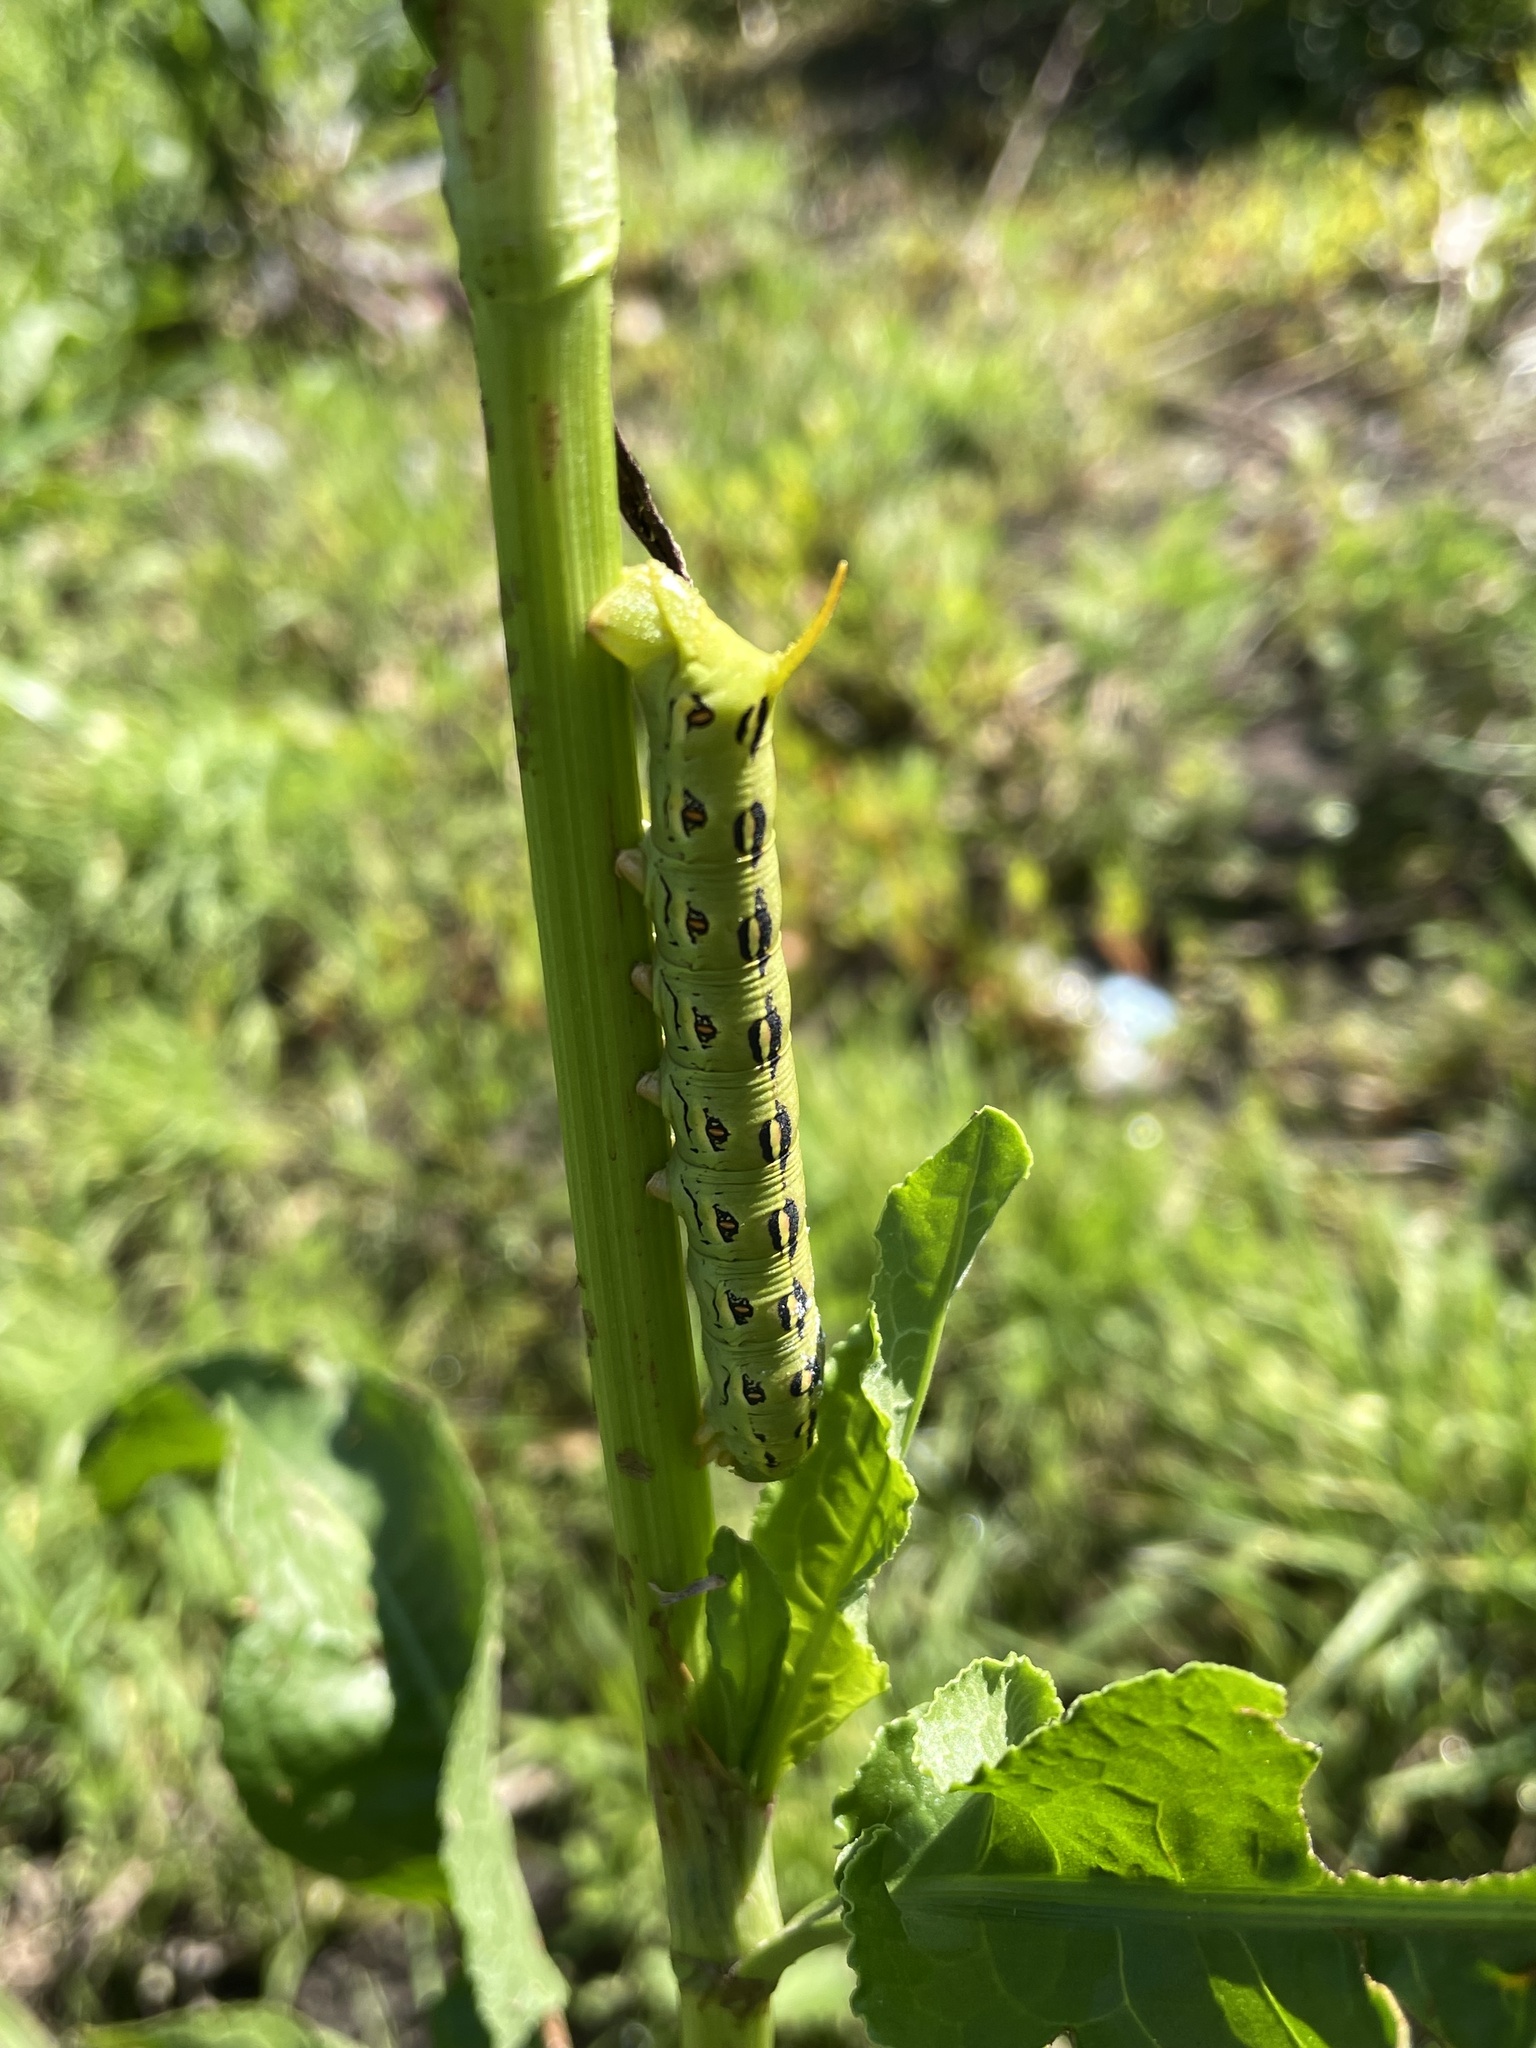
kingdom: Animalia
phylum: Arthropoda
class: Insecta
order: Lepidoptera
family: Sphingidae
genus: Hyles
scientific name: Hyles lineata
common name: White-lined sphinx
